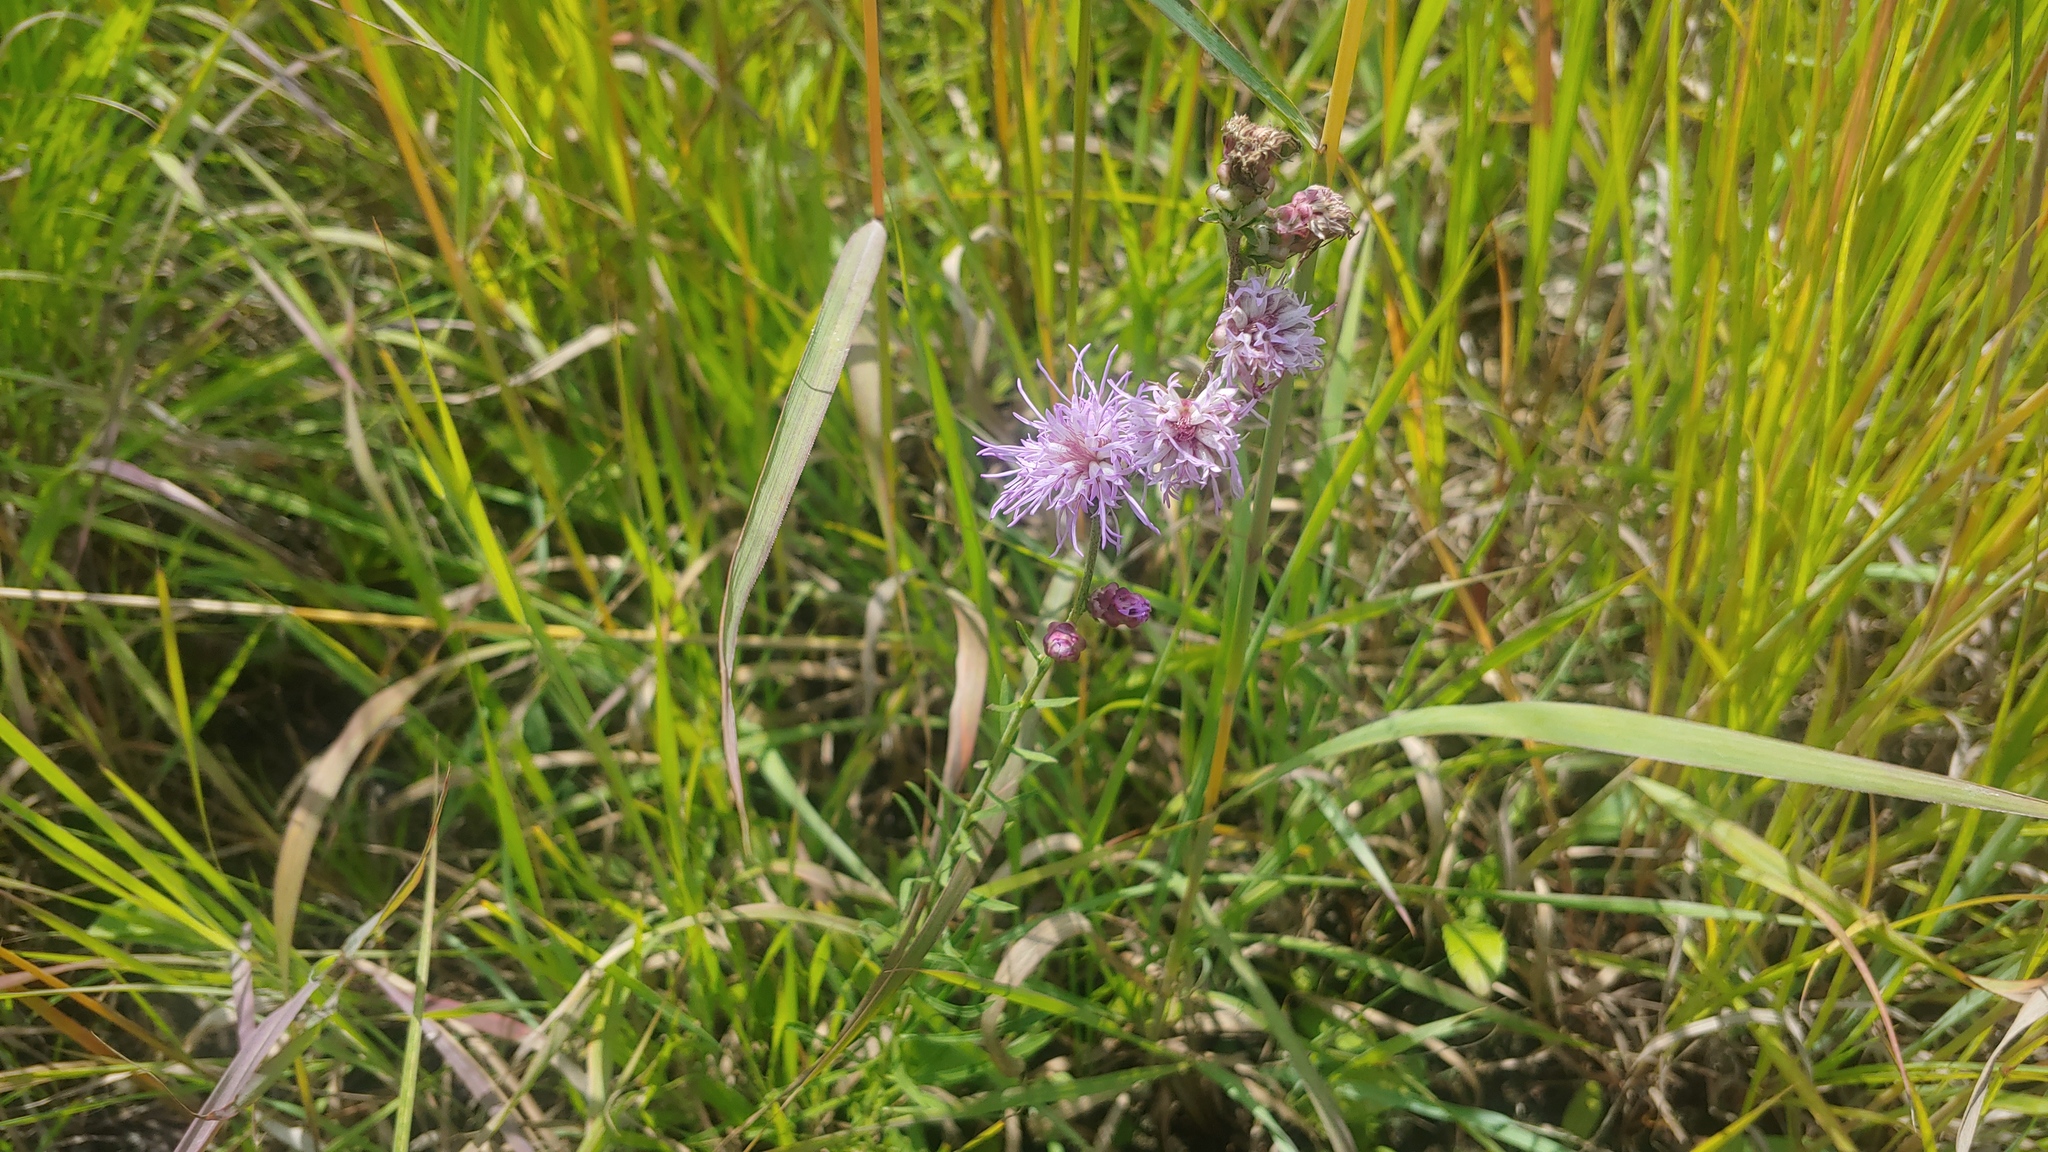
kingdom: Plantae
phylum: Tracheophyta
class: Magnoliopsida
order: Asterales
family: Asteraceae
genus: Liatris
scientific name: Liatris aspera
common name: Lacerate blazing-star
